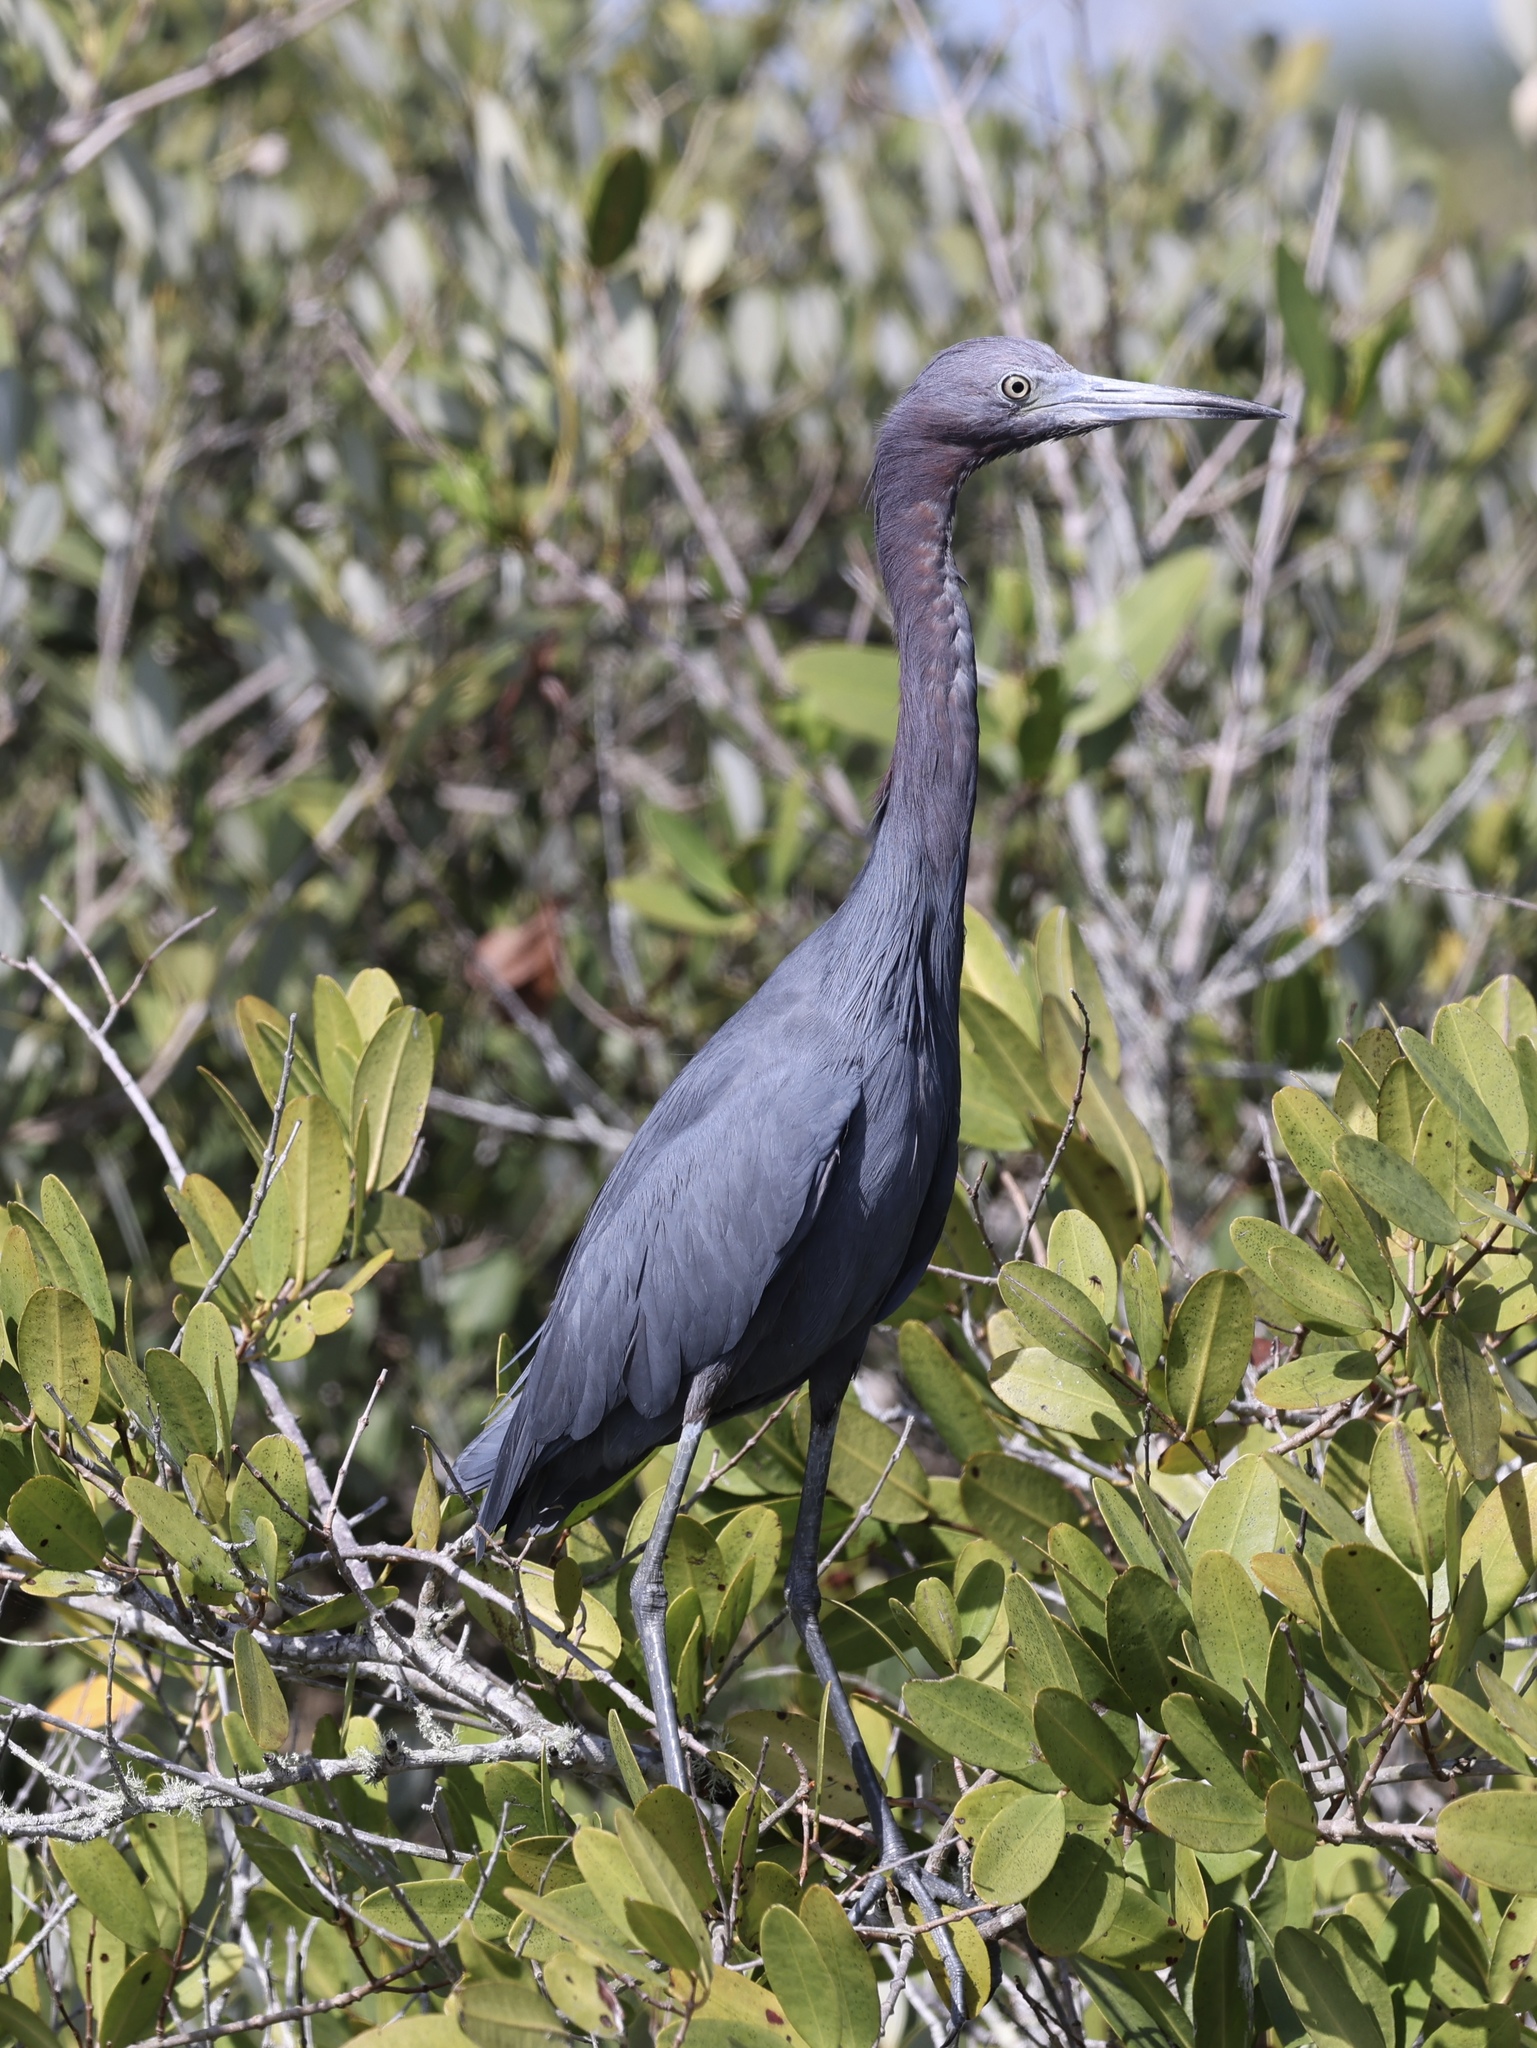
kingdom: Animalia
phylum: Chordata
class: Aves
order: Pelecaniformes
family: Ardeidae
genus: Egretta
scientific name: Egretta caerulea
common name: Little blue heron
